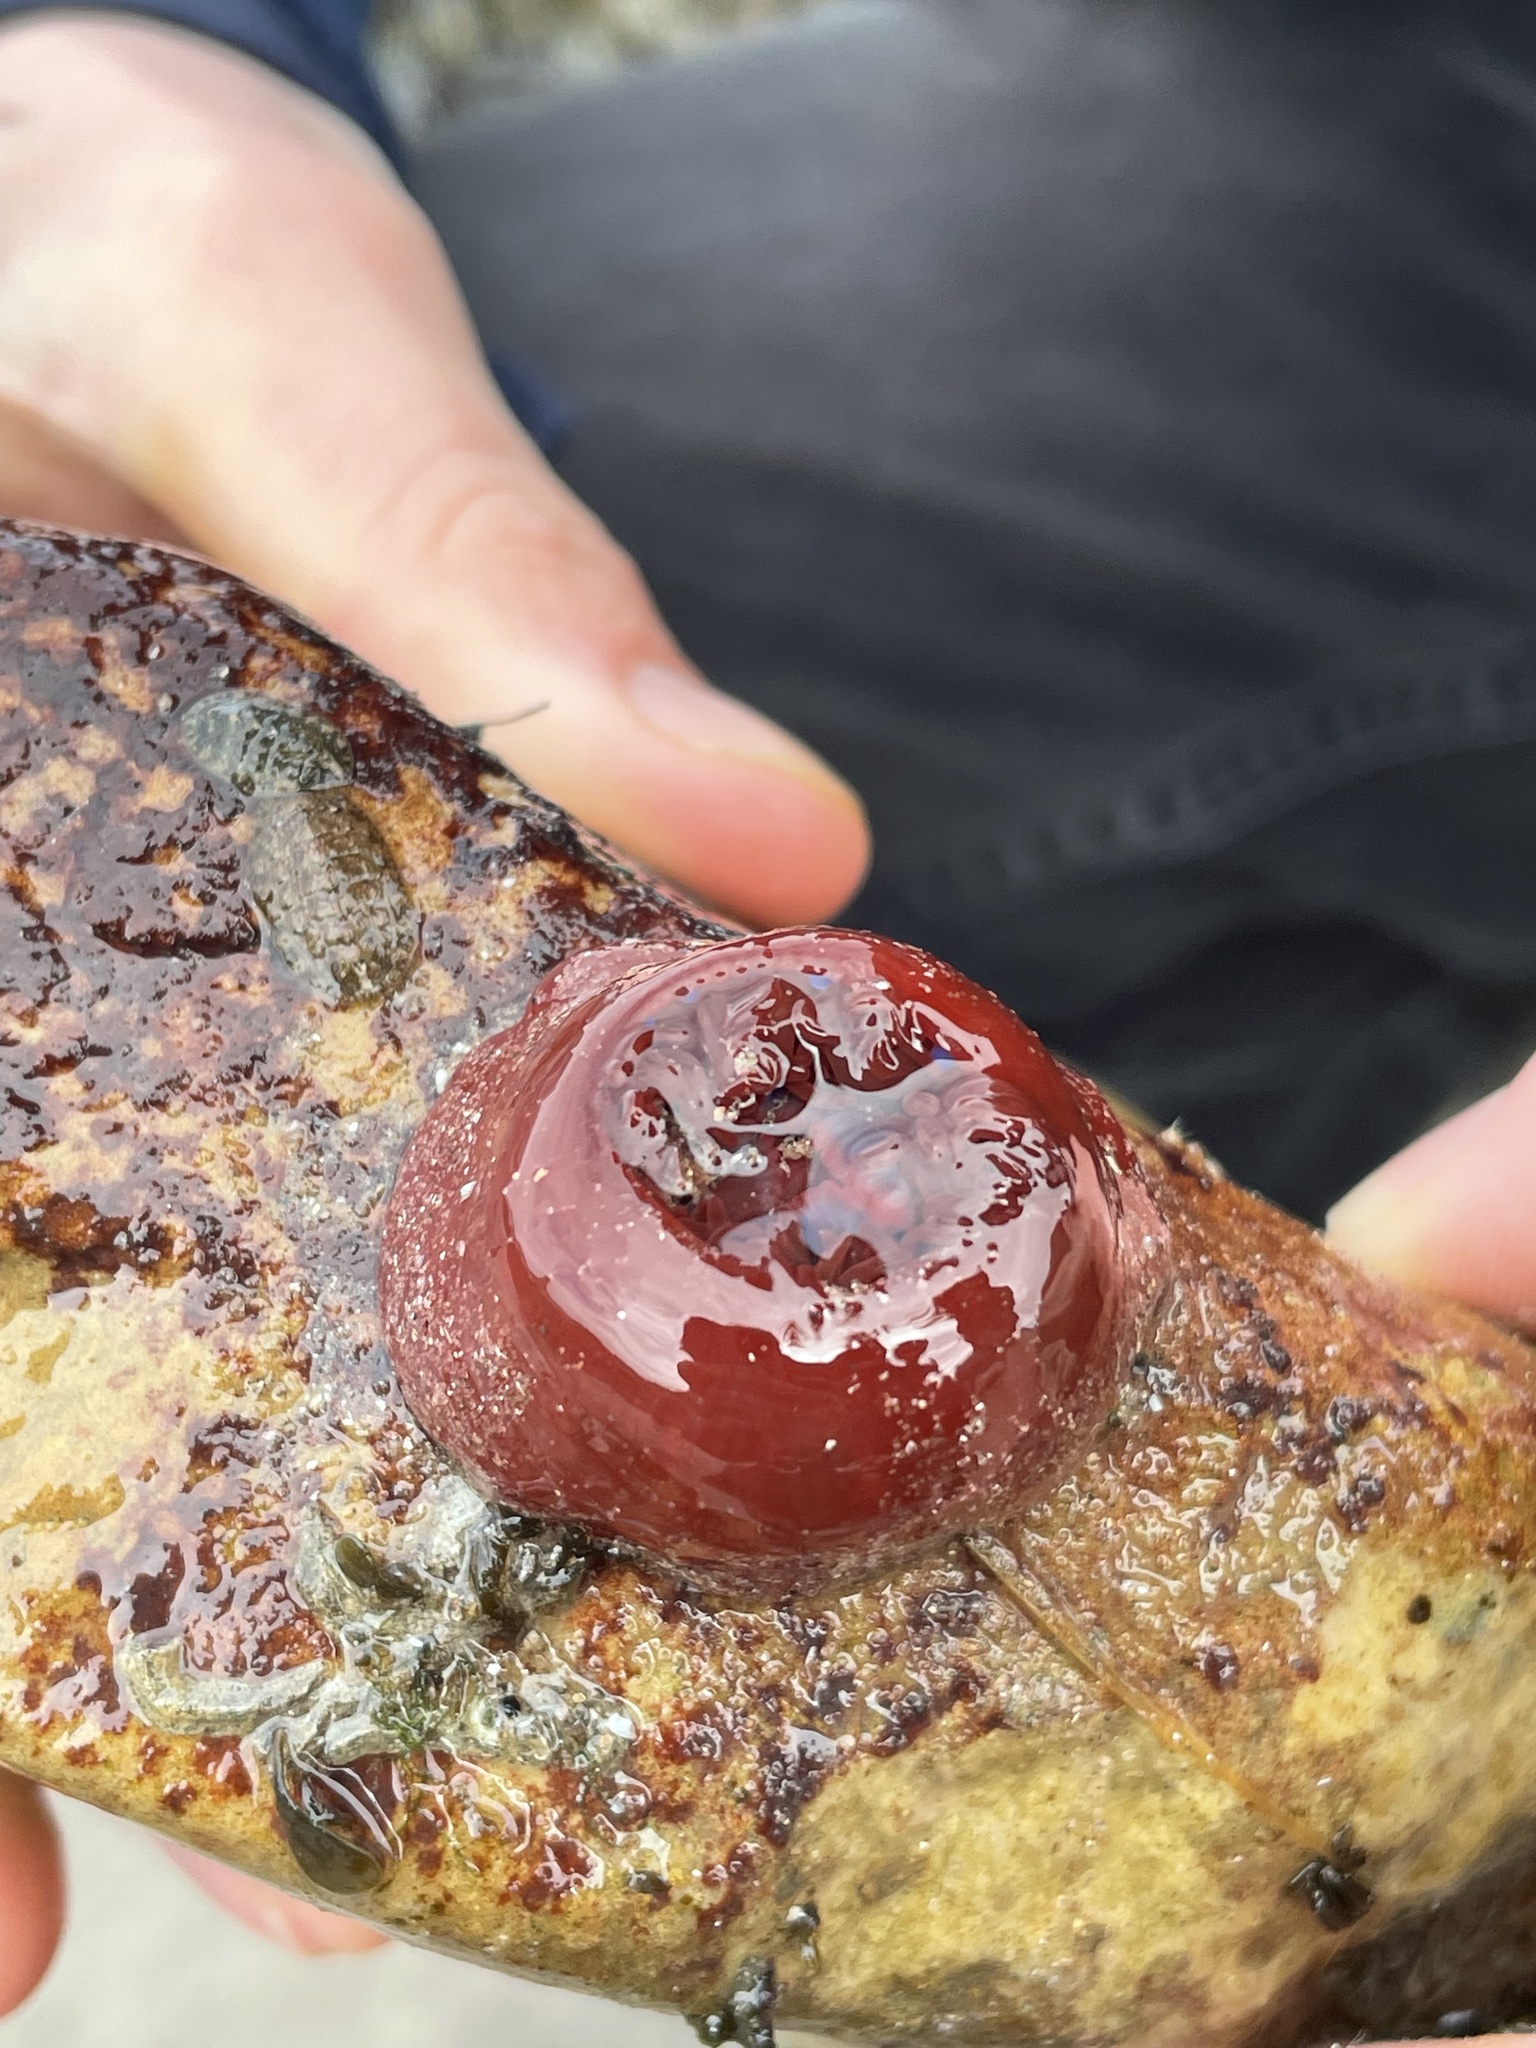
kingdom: Animalia
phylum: Cnidaria
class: Anthozoa
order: Actiniaria
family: Actiniidae
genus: Actinia
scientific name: Actinia equina
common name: Beadlet anemone
